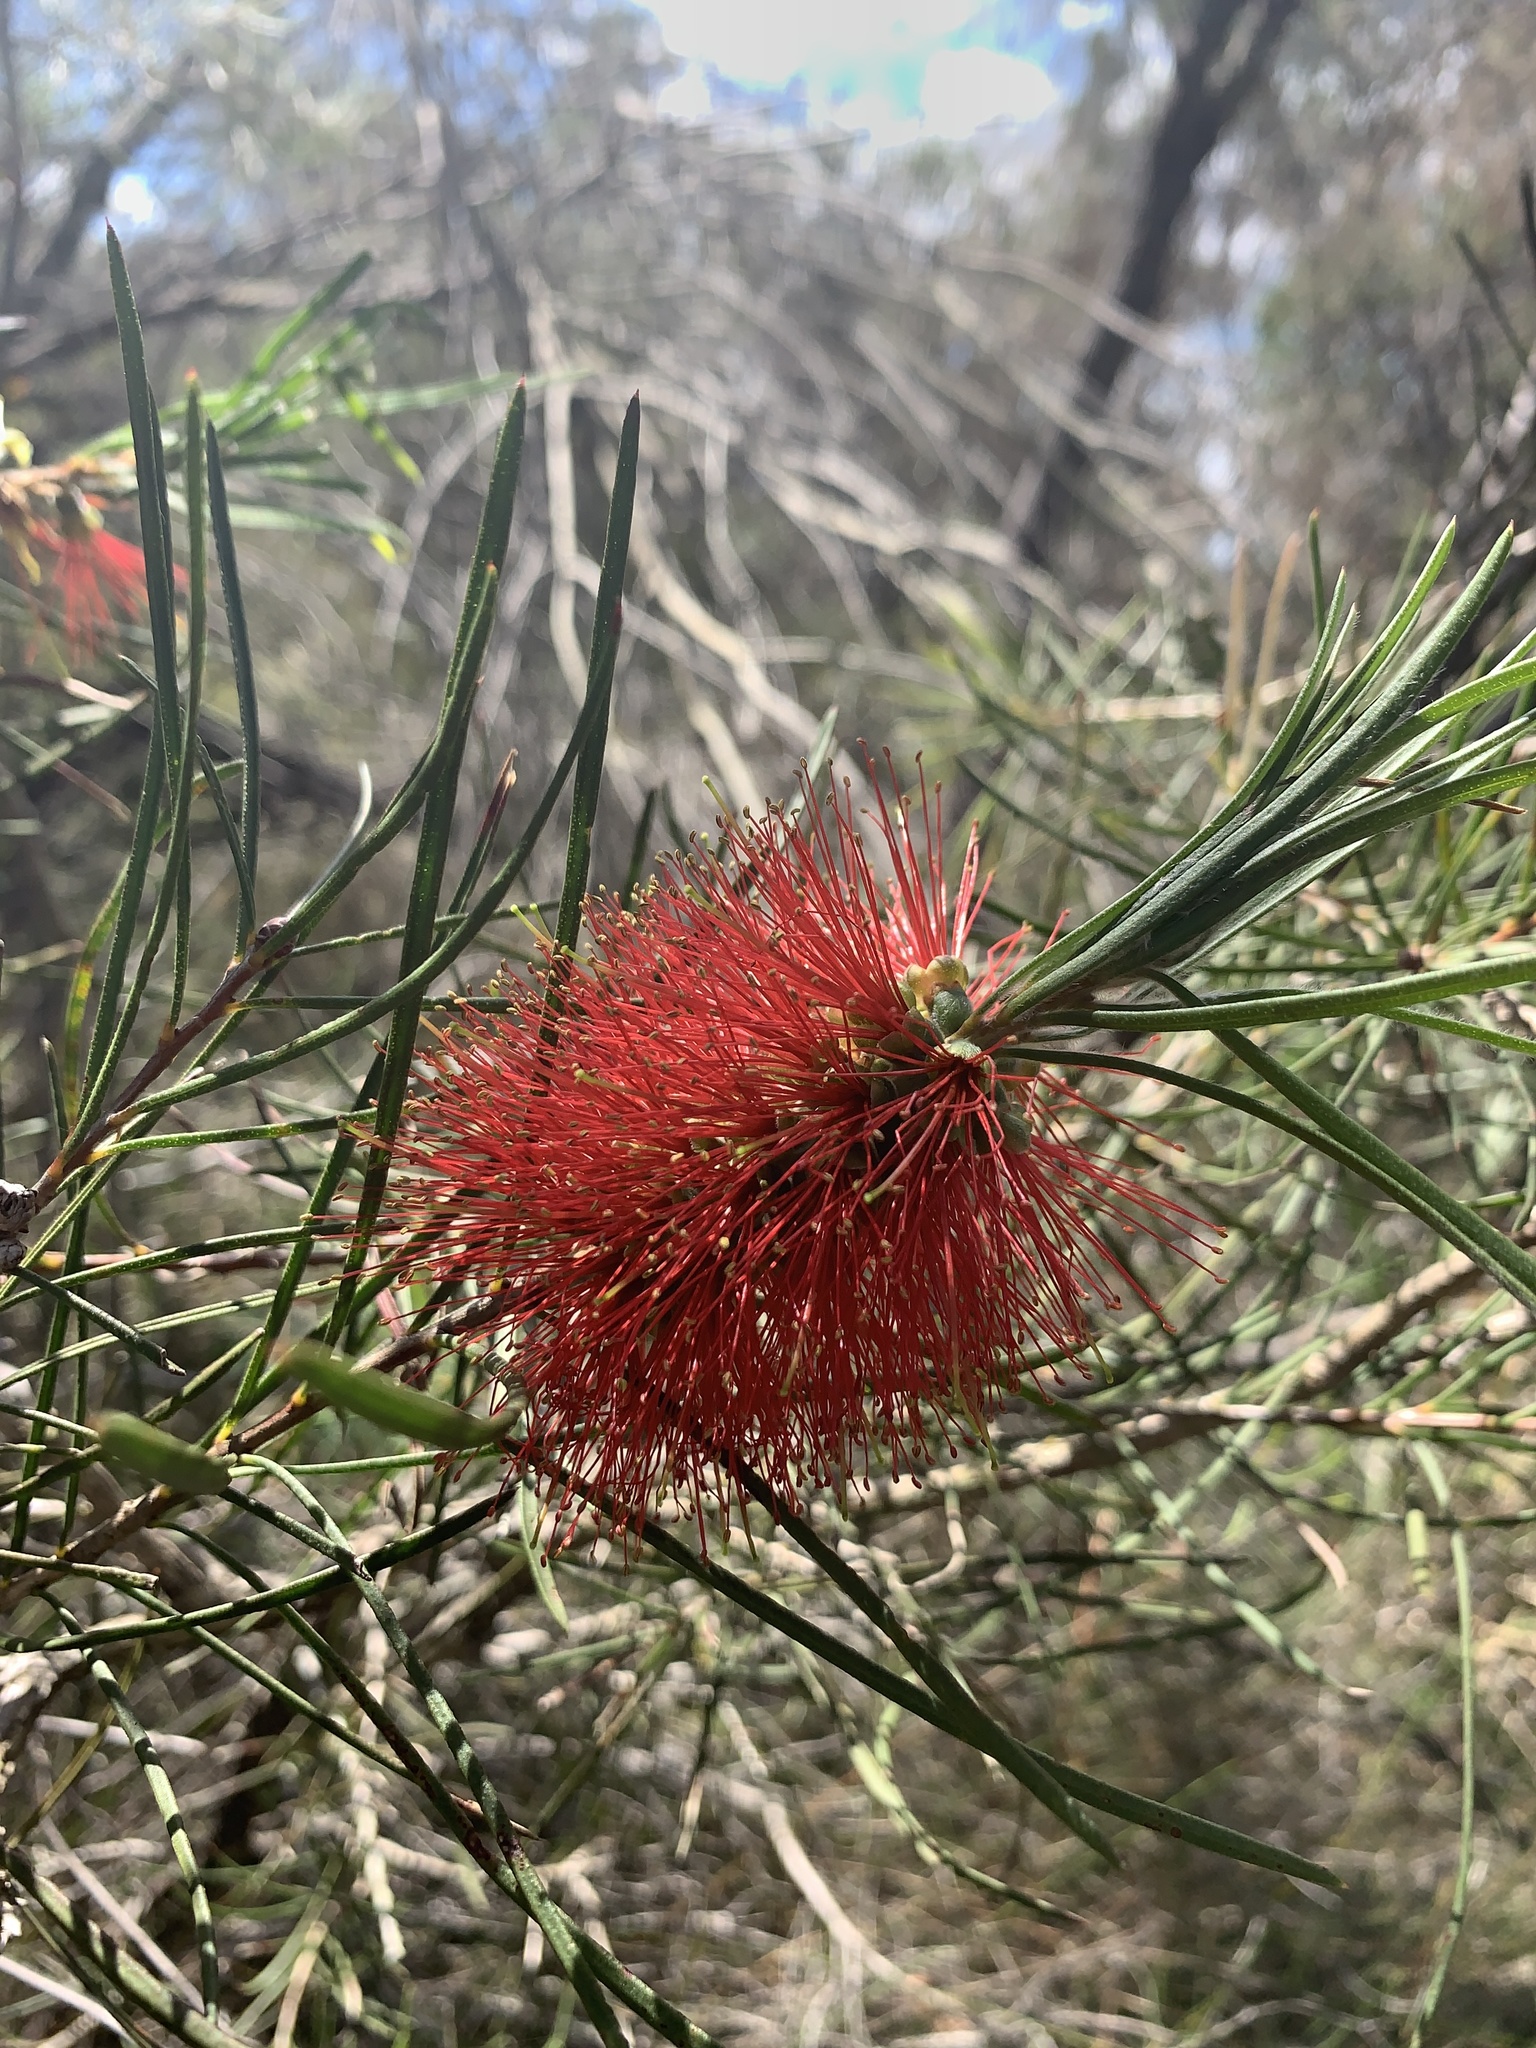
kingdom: Plantae
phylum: Tracheophyta
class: Magnoliopsida
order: Myrtales
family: Myrtaceae
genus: Callistemon
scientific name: Callistemon linearis
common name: Narrow-leaf bottlebrush
